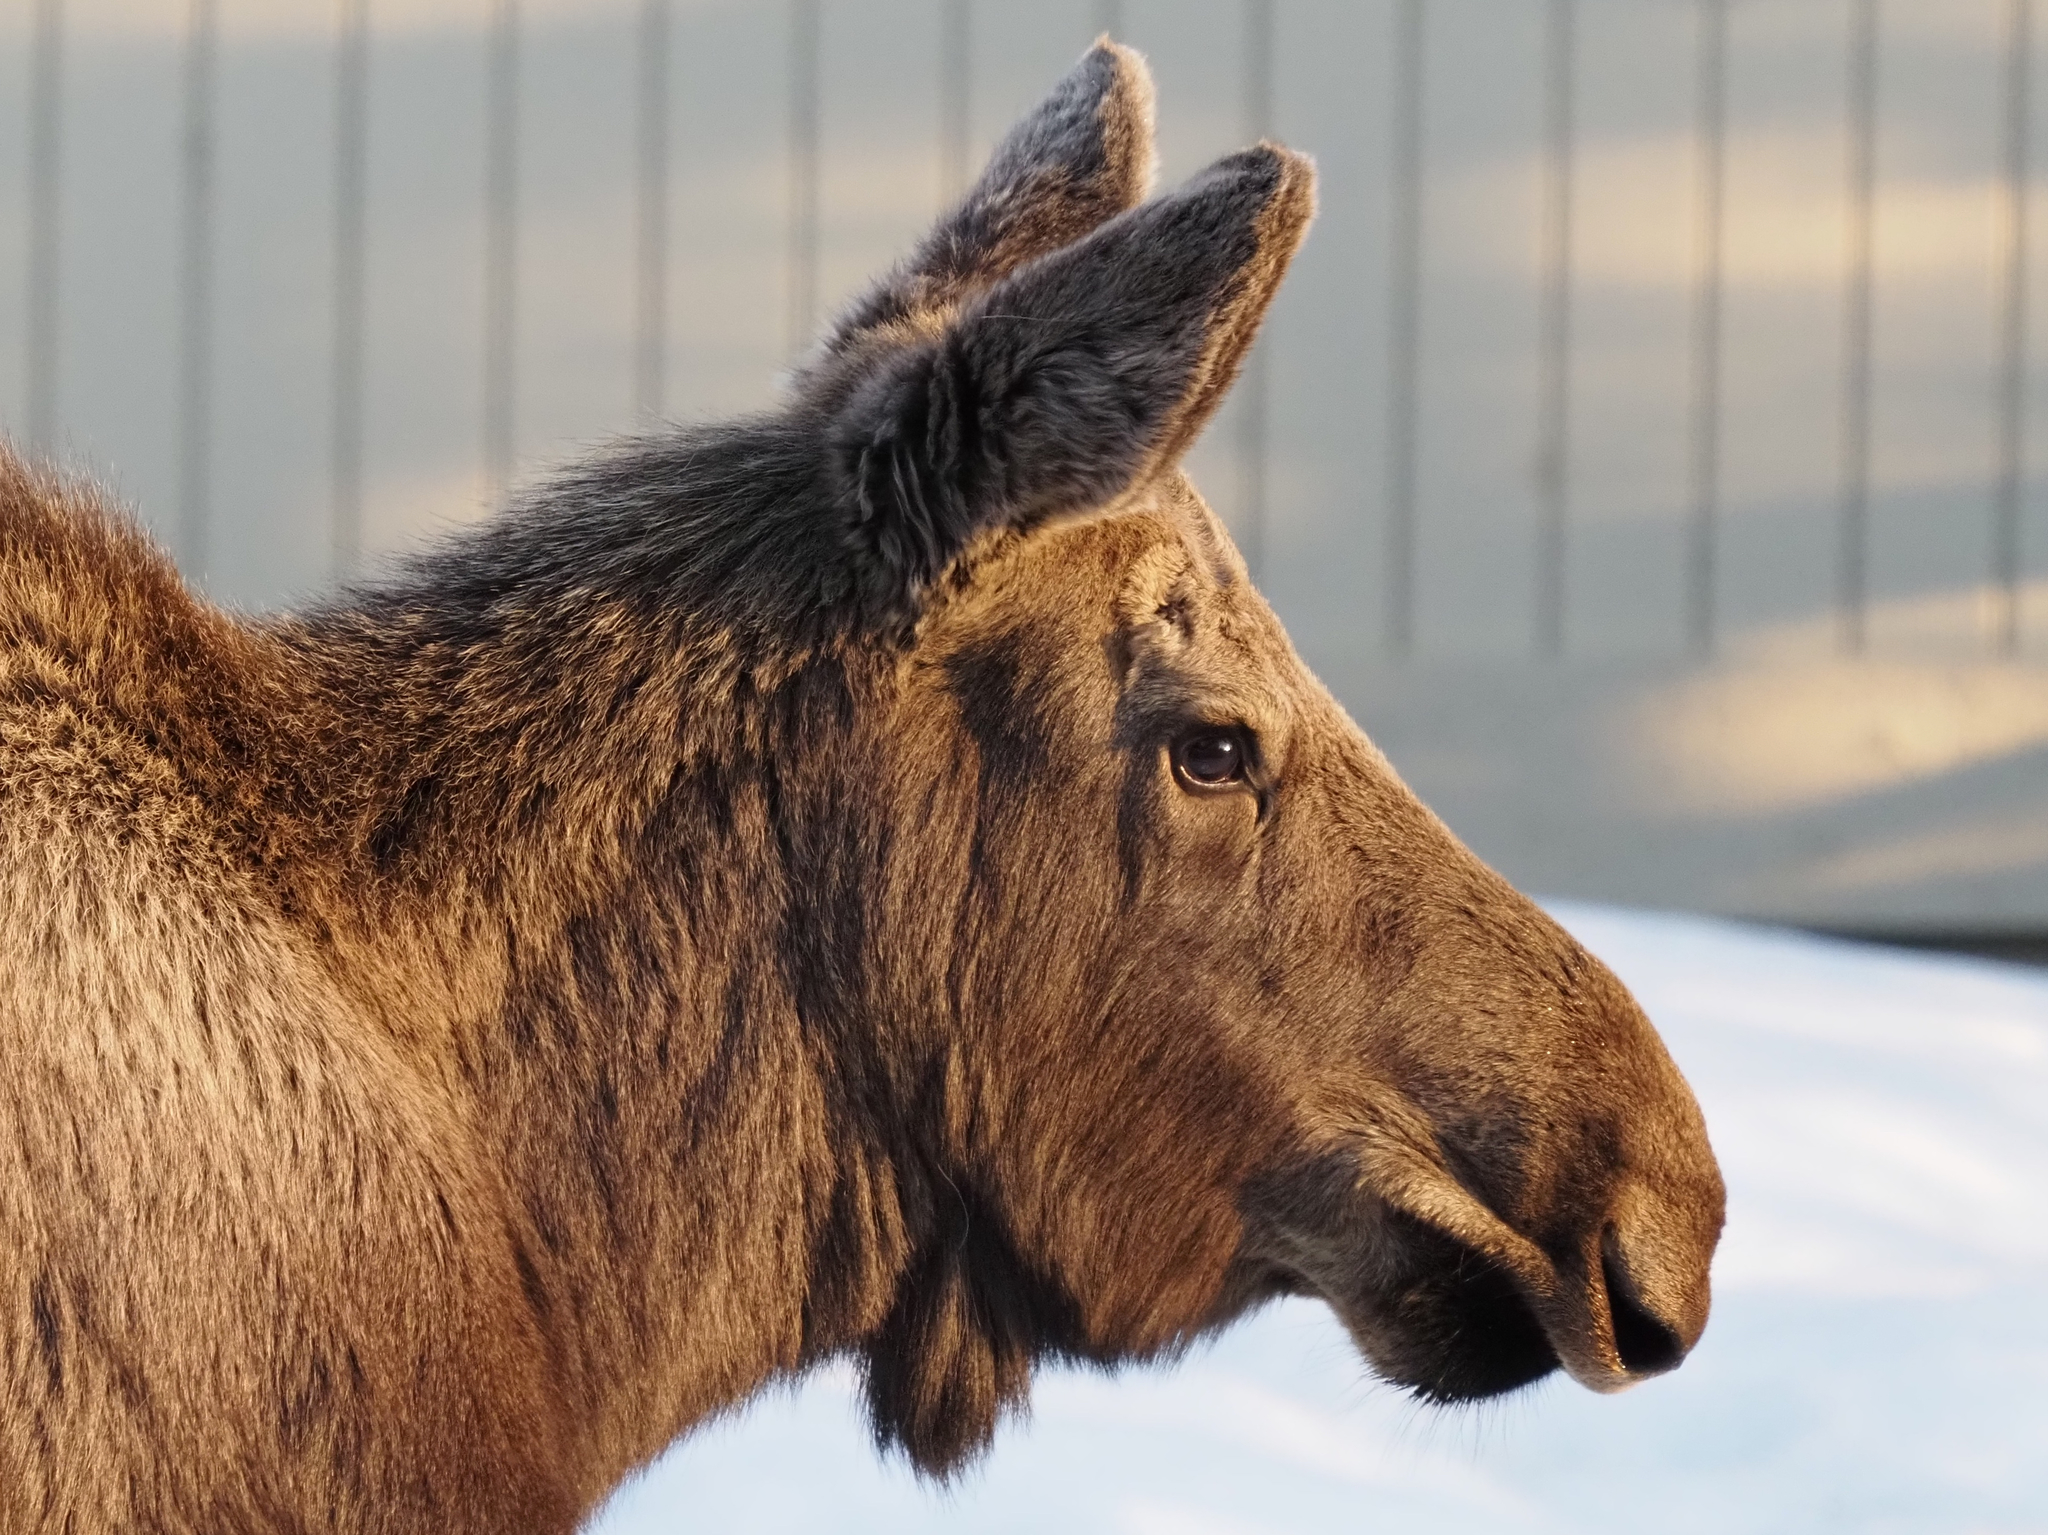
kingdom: Animalia
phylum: Chordata
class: Mammalia
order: Artiodactyla
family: Cervidae
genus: Alces
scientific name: Alces alces
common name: Moose
